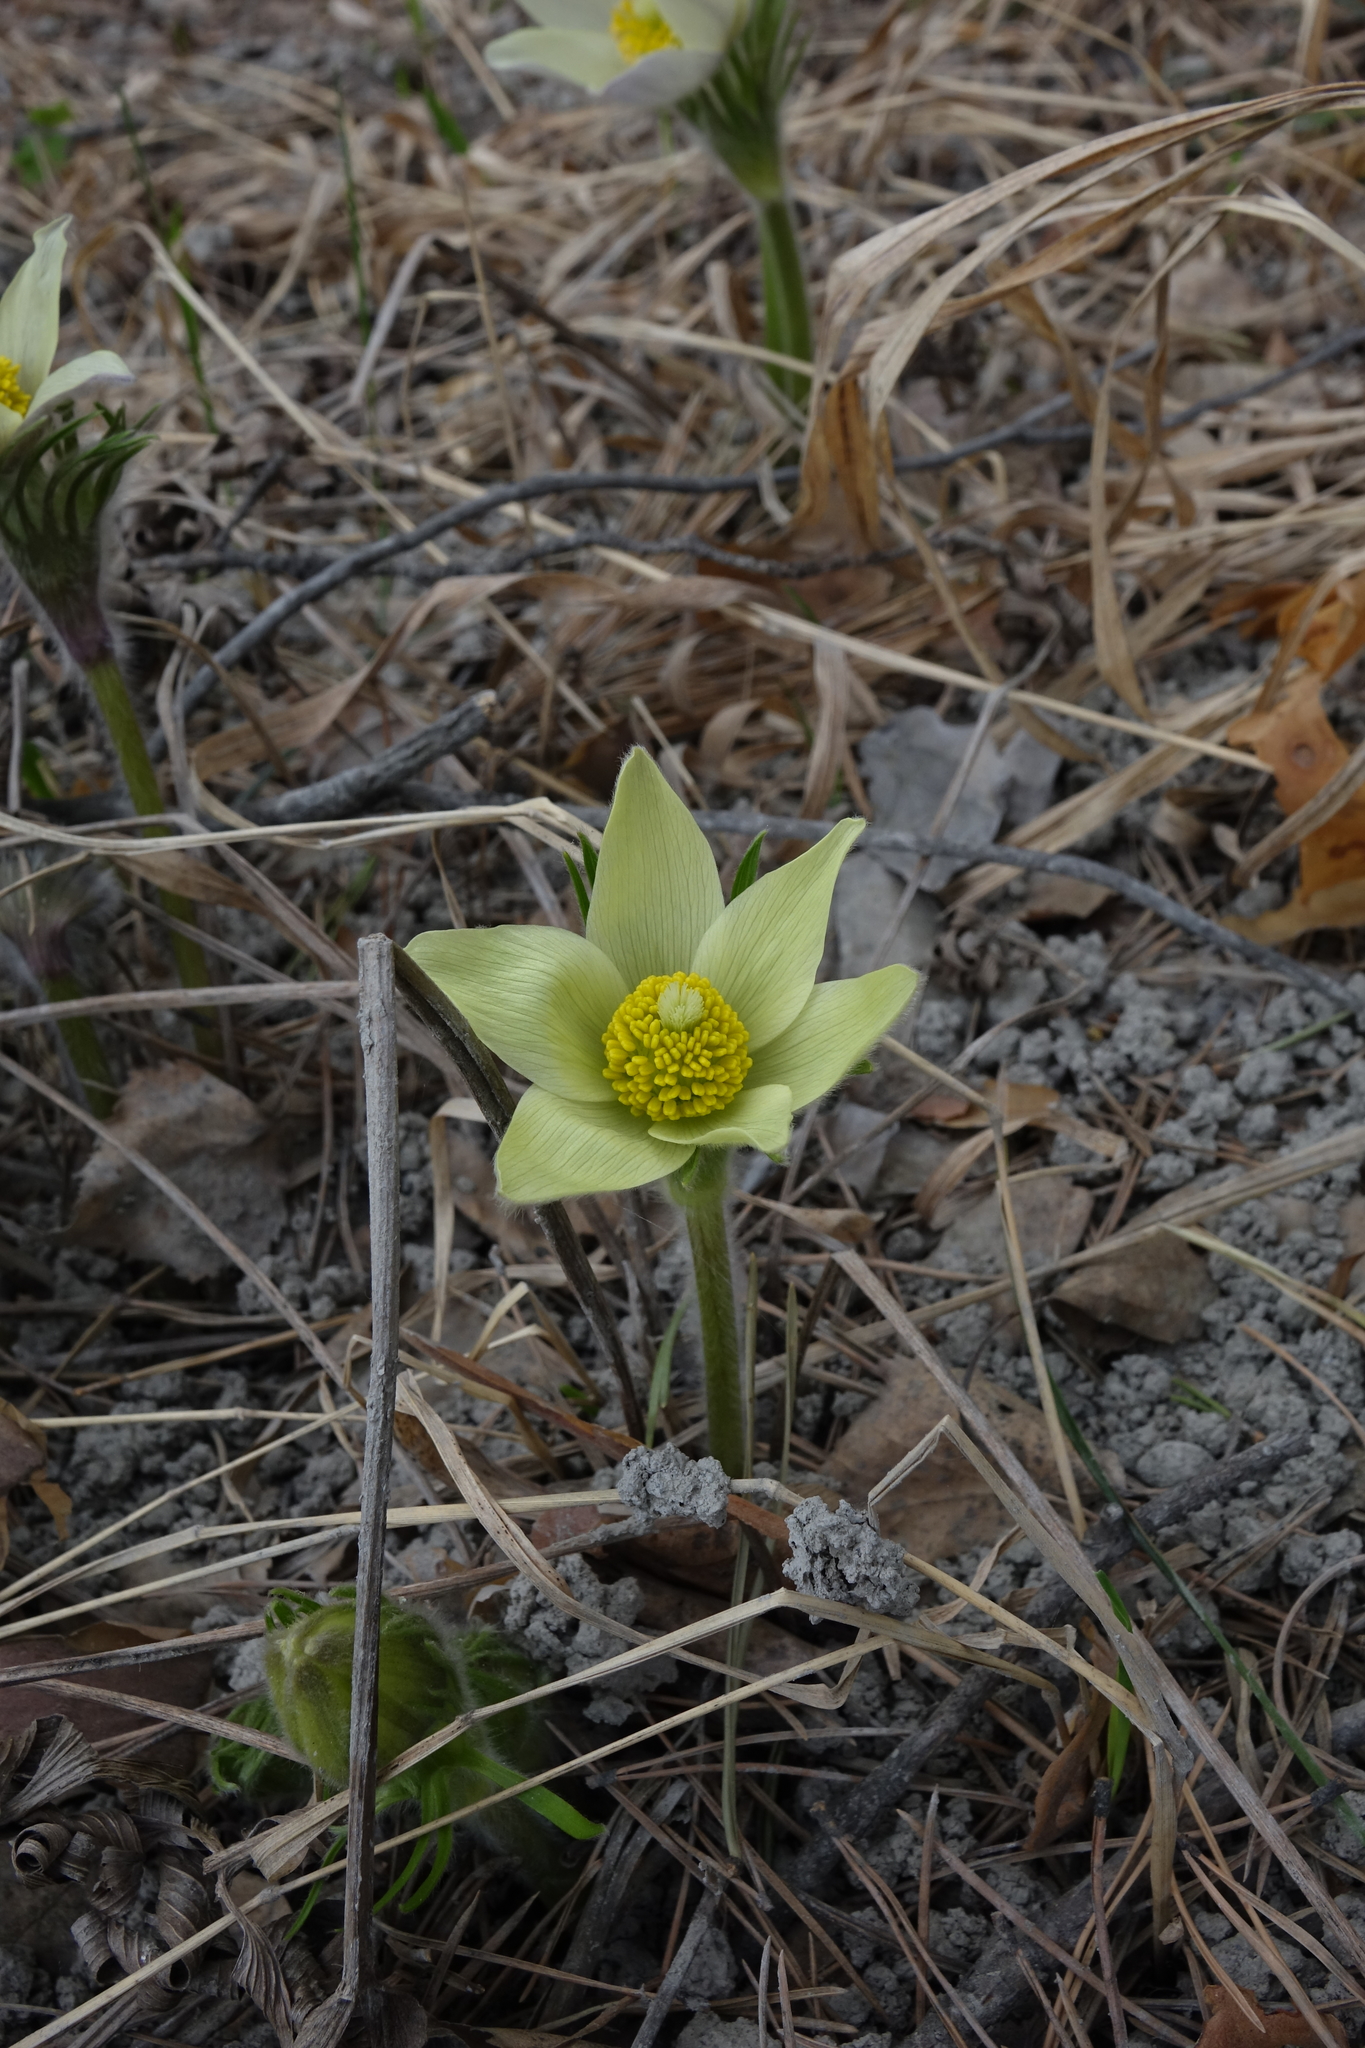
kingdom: Plantae
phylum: Tracheophyta
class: Magnoliopsida
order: Ranunculales
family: Ranunculaceae
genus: Pulsatilla
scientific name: Pulsatilla patens
